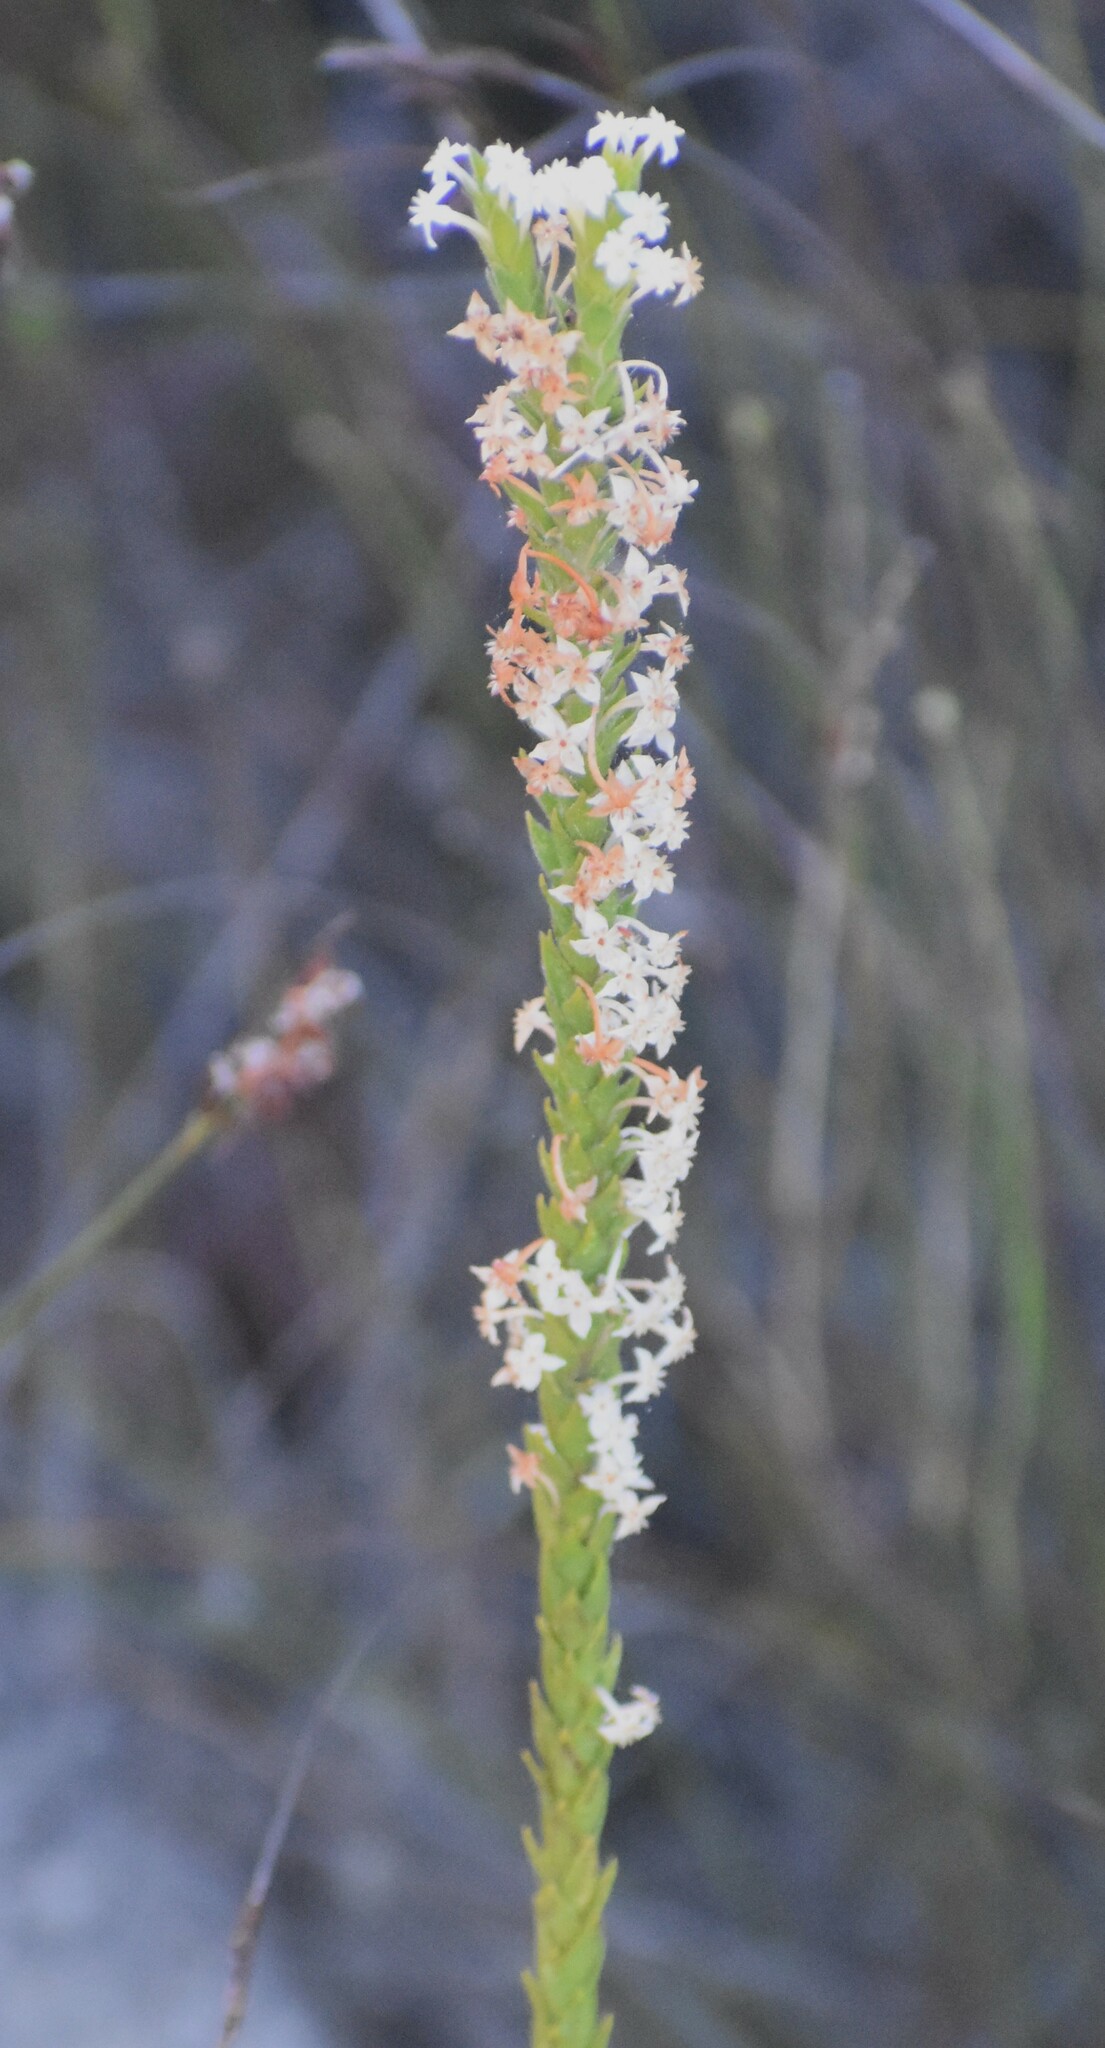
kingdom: Plantae
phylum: Tracheophyta
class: Magnoliopsida
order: Malvales
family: Thymelaeaceae
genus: Struthiola
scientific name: Struthiola hirsuta
